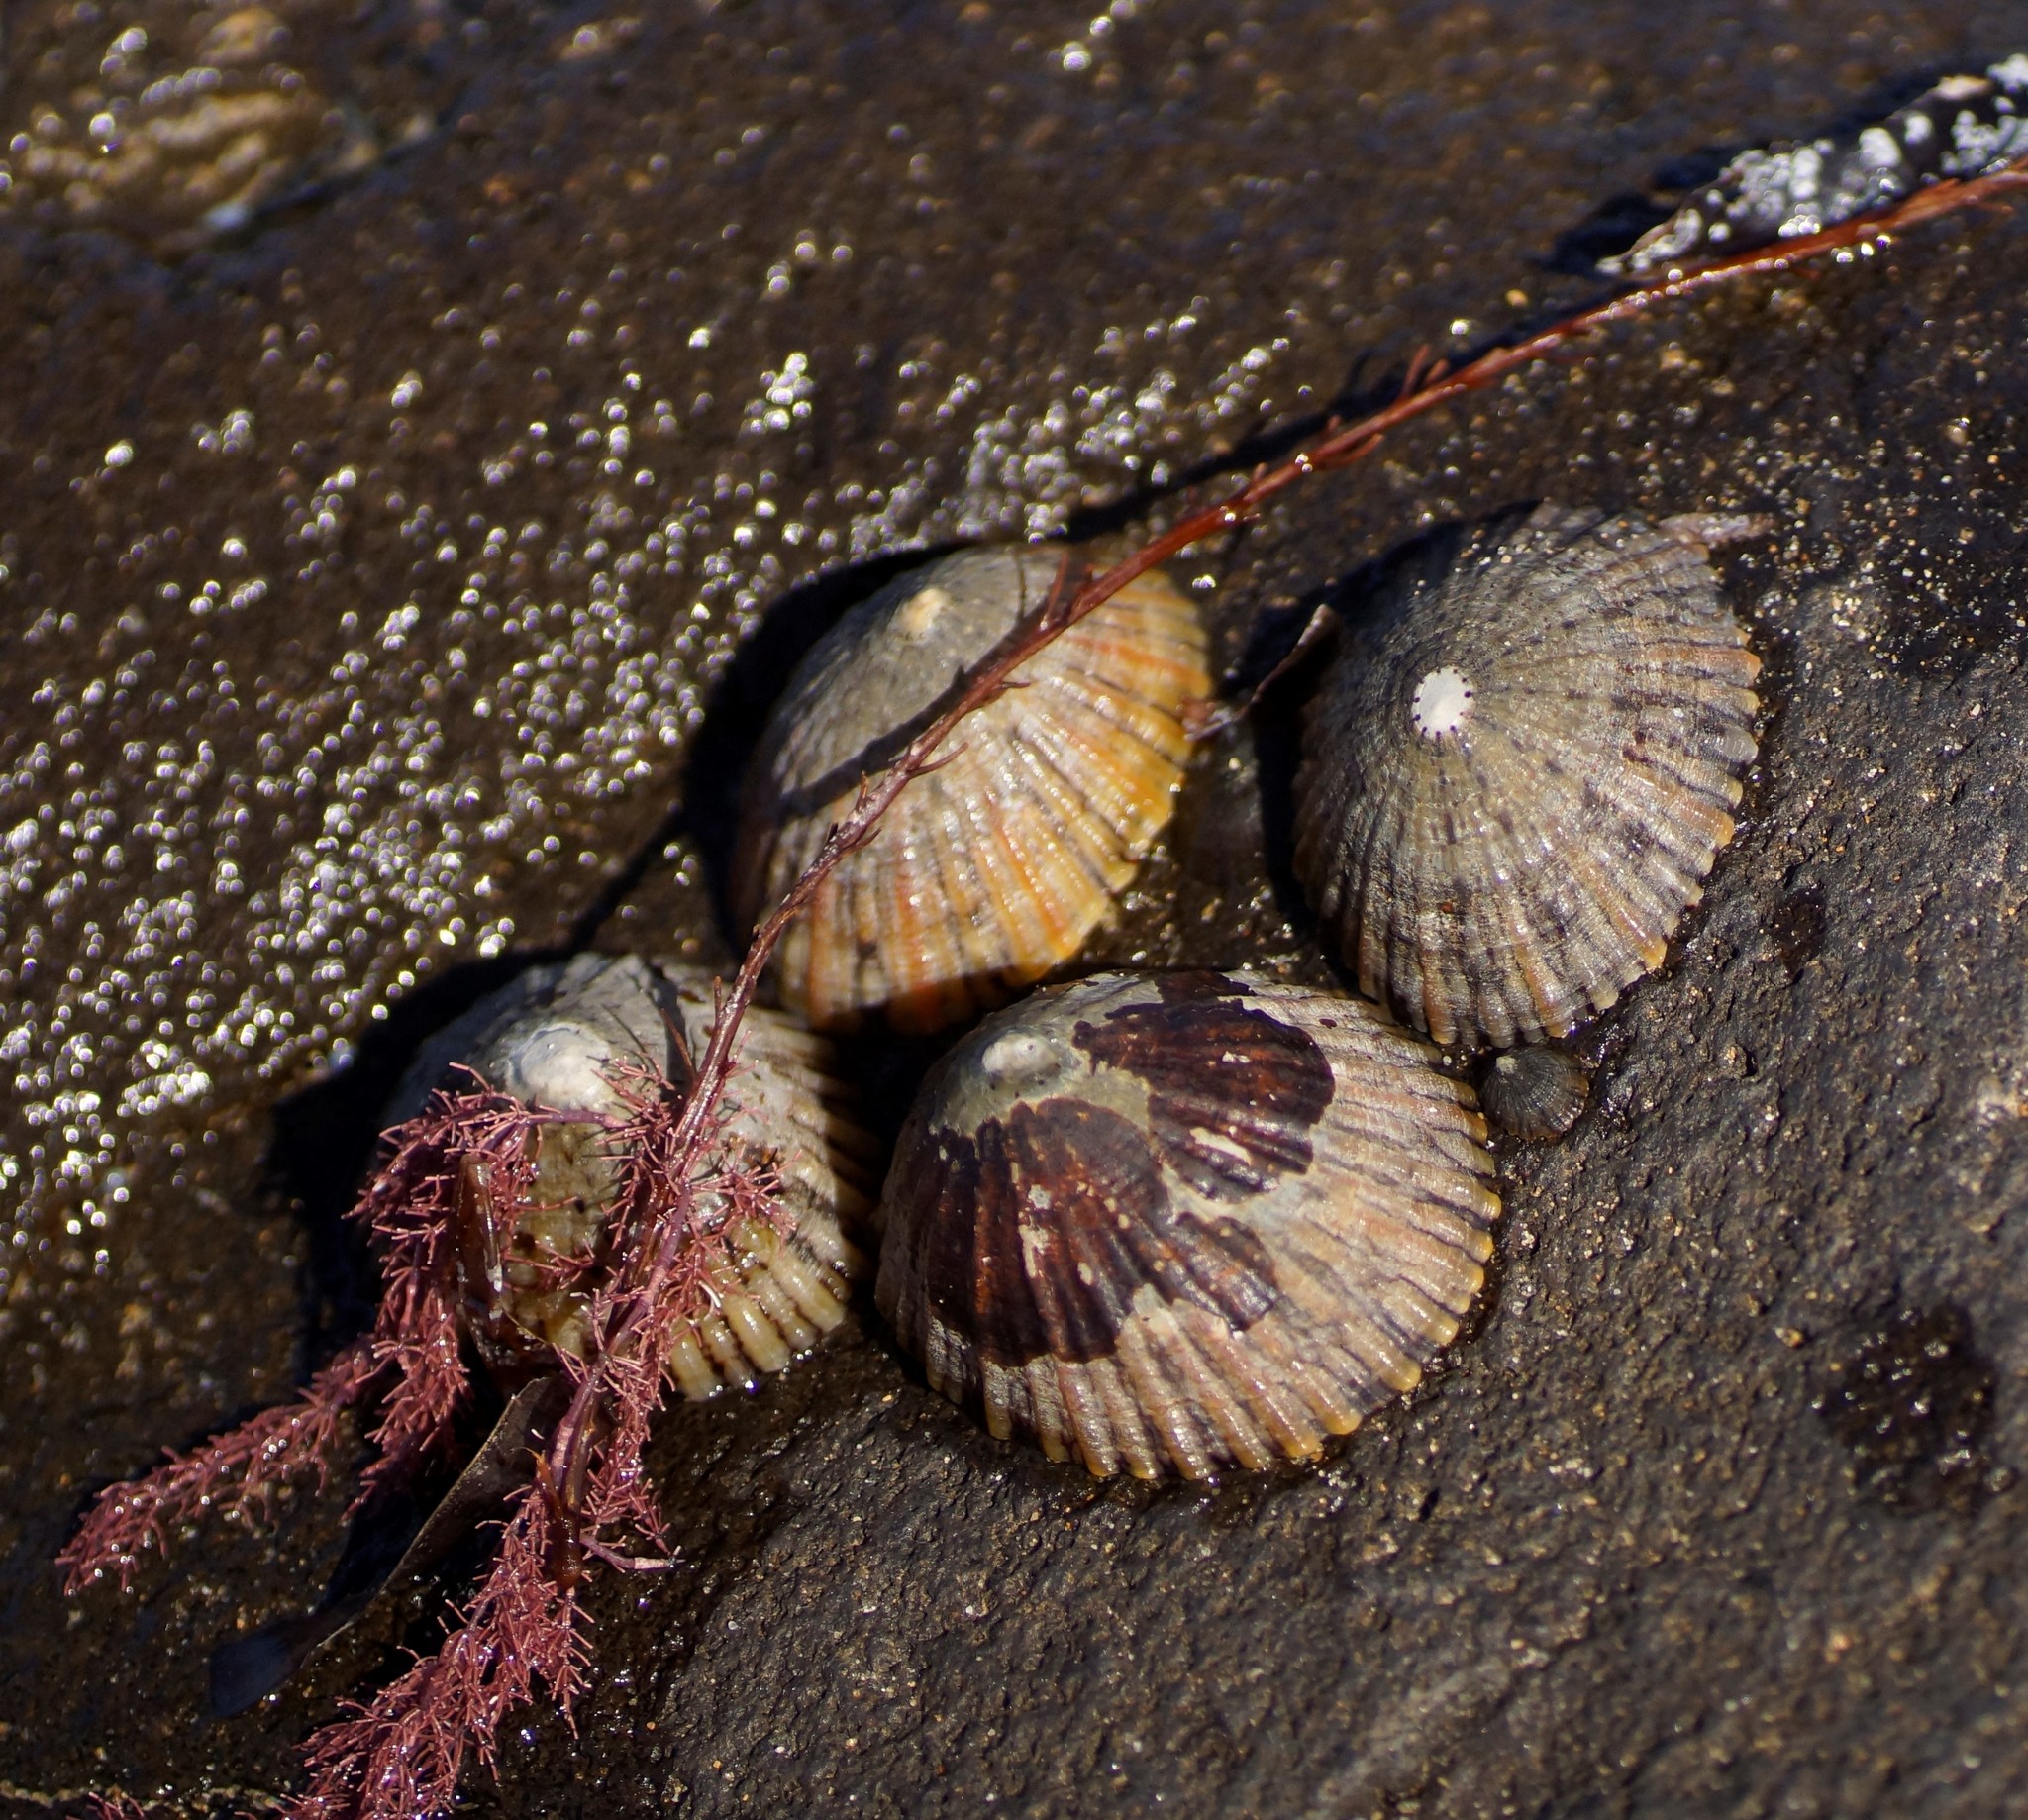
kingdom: Animalia
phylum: Mollusca
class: Gastropoda
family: Nacellidae
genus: Cellana
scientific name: Cellana tramoserica
